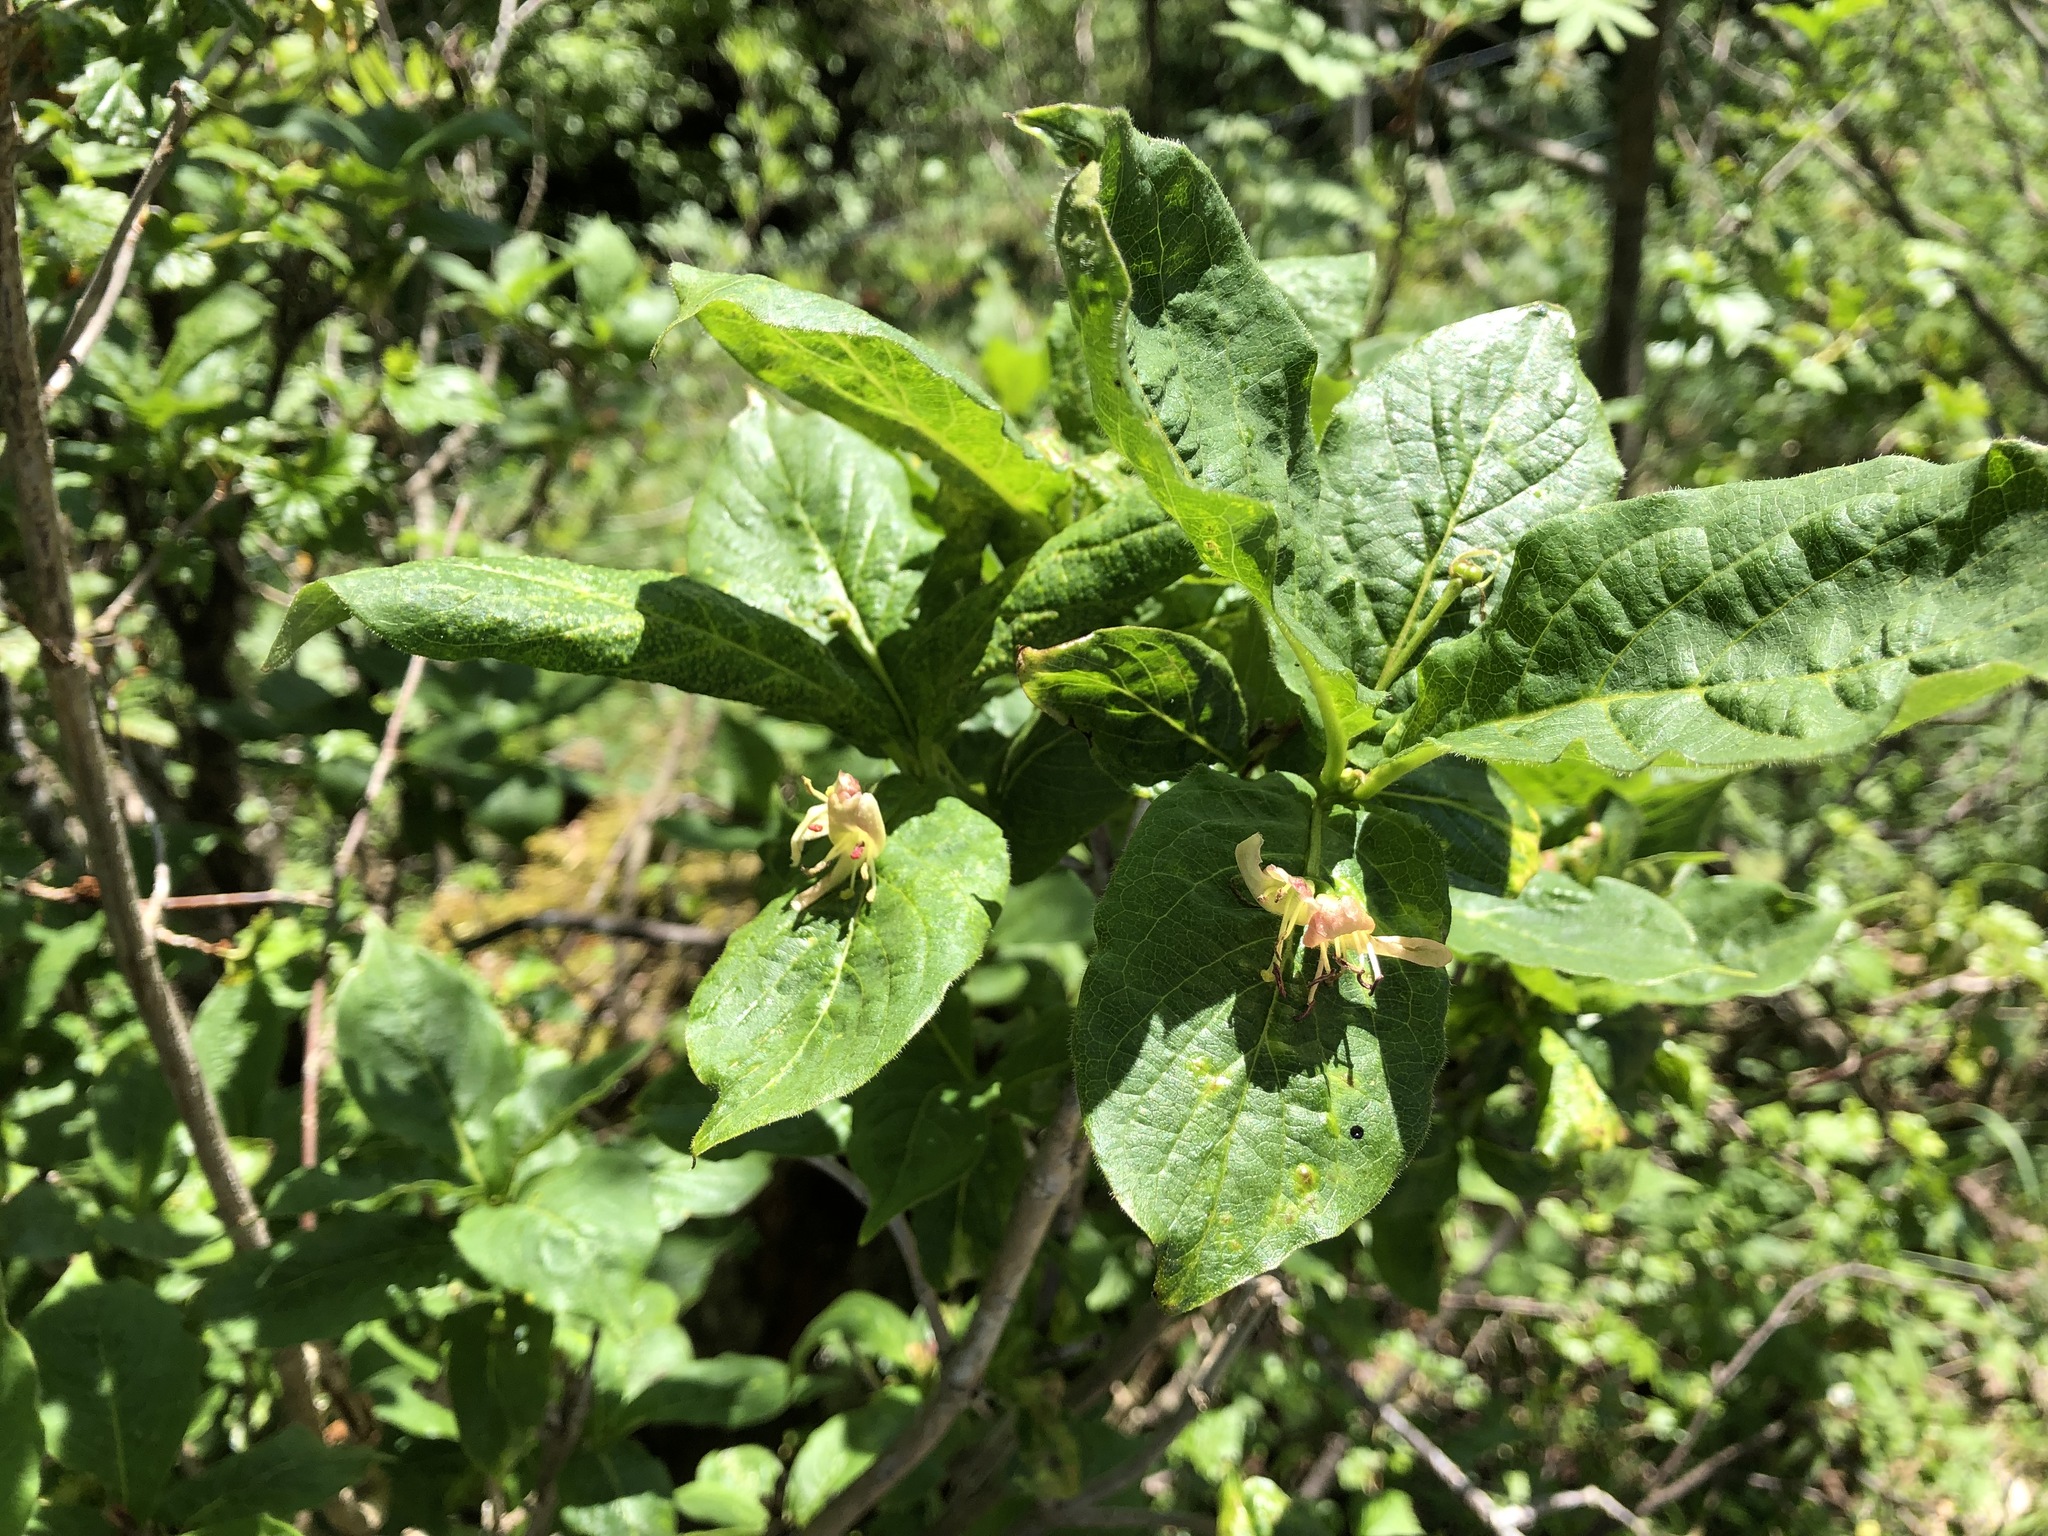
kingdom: Plantae
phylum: Tracheophyta
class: Magnoliopsida
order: Dipsacales
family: Caprifoliaceae
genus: Lonicera
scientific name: Lonicera alpigena
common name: Alpine honeysuckle
